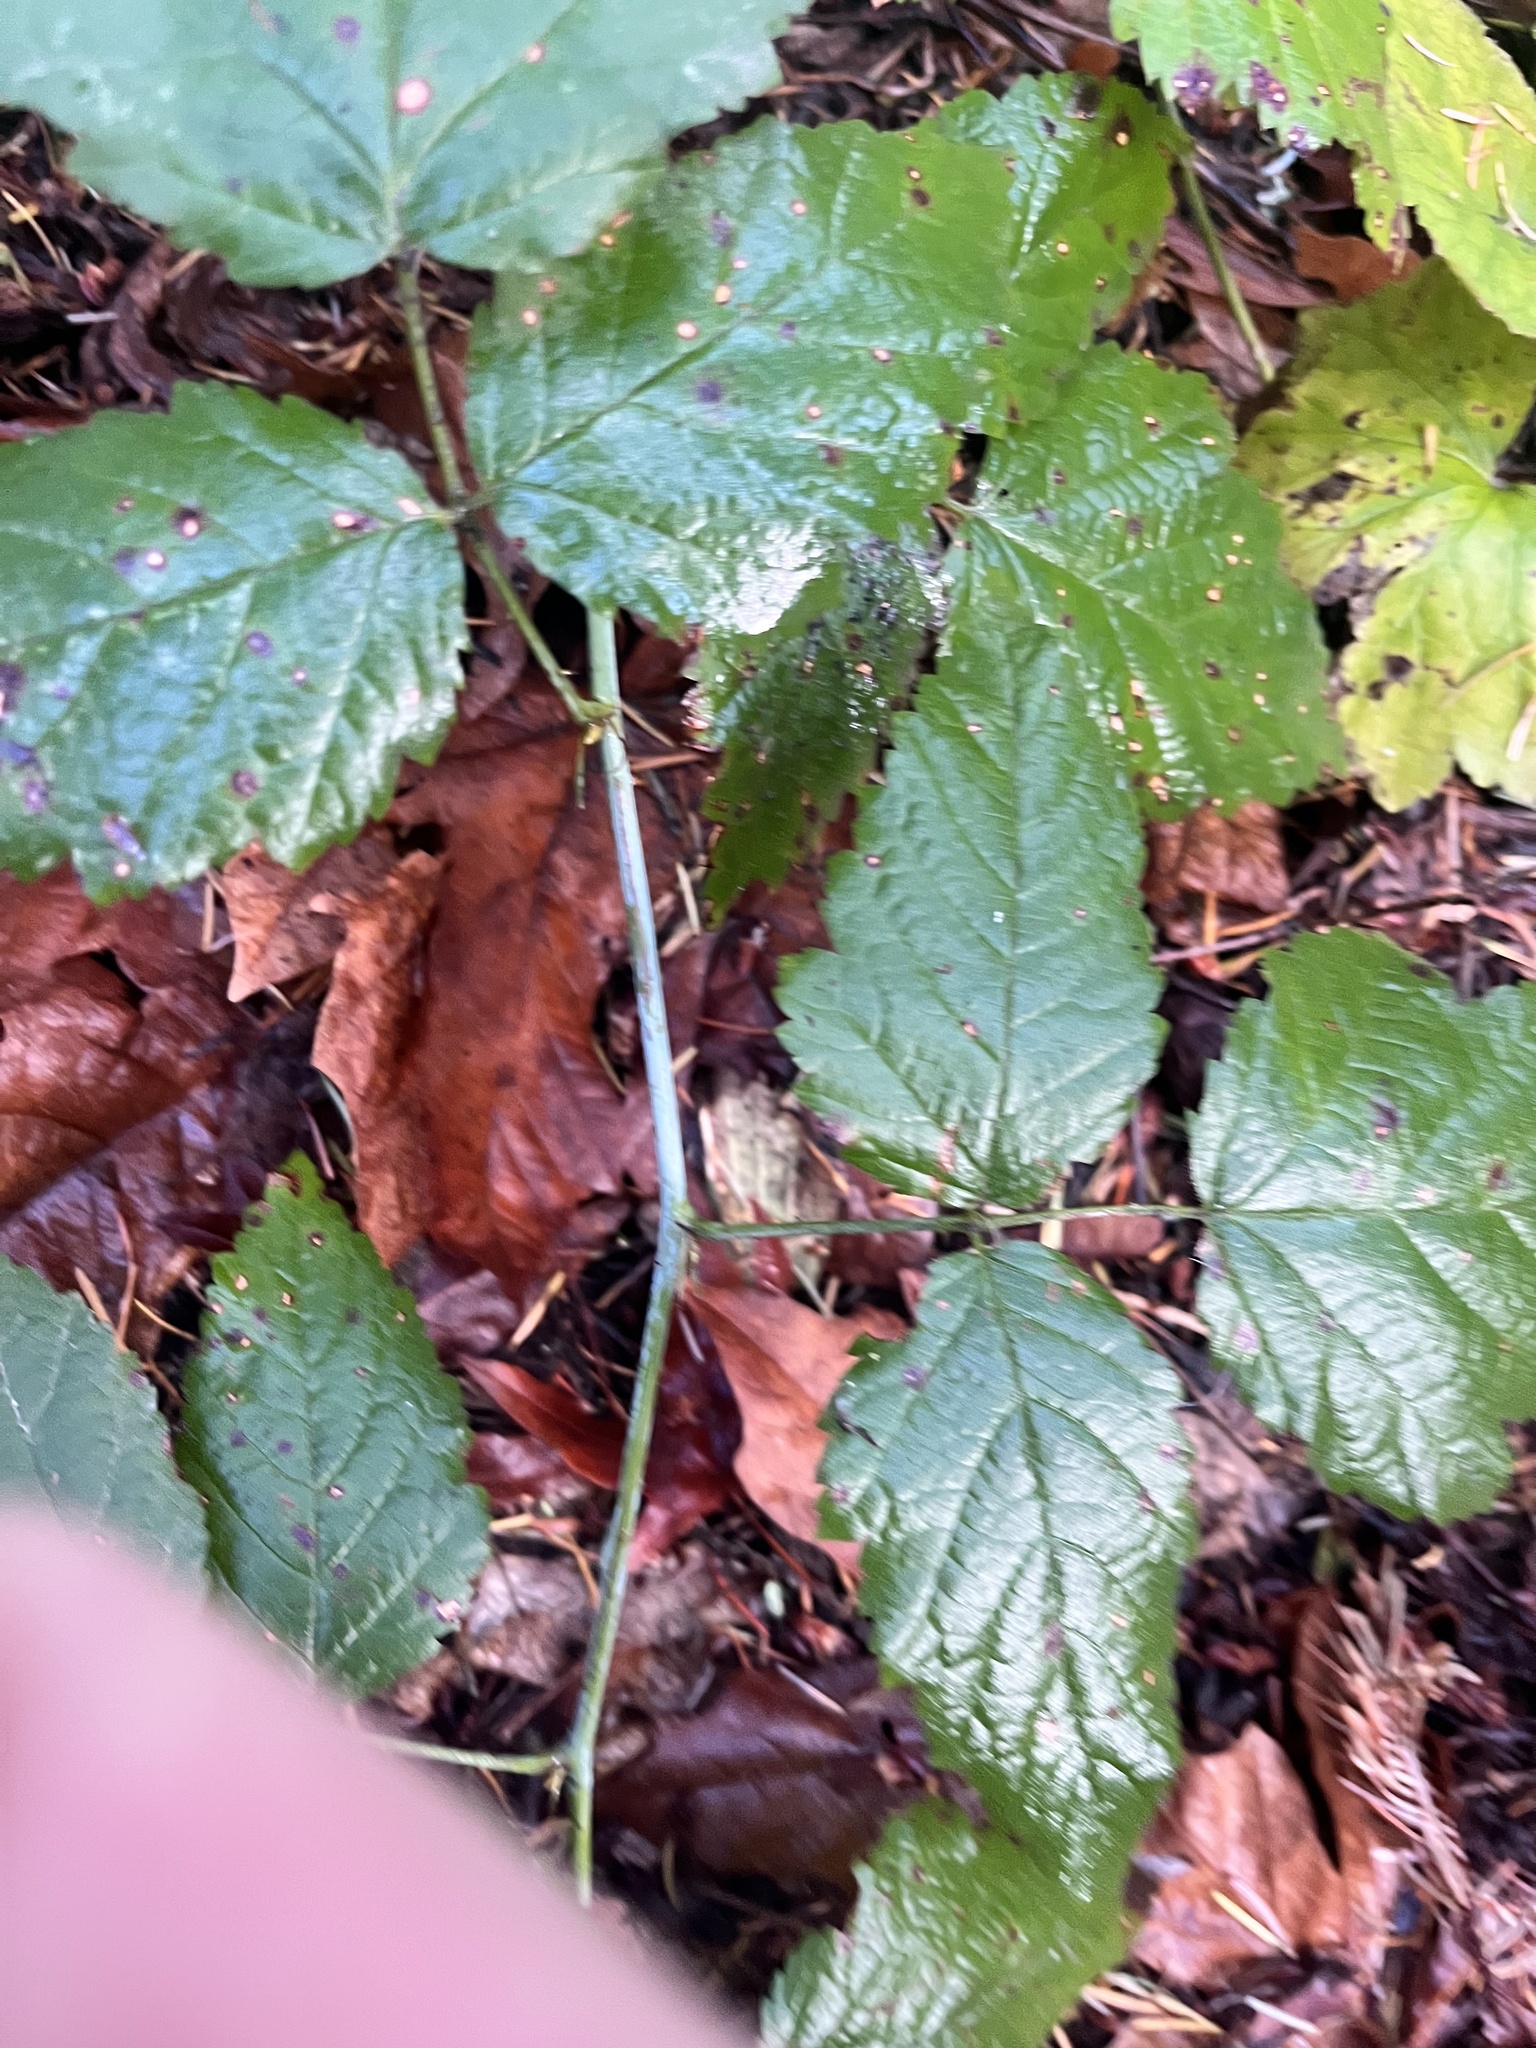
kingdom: Plantae
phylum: Tracheophyta
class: Magnoliopsida
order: Rosales
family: Rosaceae
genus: Rubus
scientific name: Rubus ursinus
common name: Pacific blackberry
